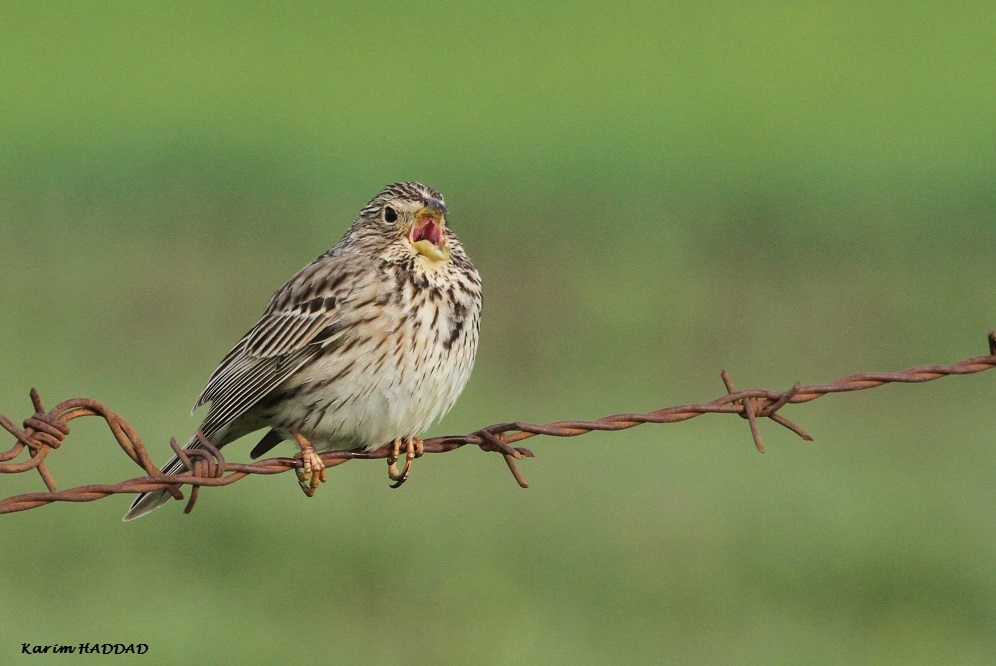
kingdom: Animalia
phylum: Chordata
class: Aves
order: Passeriformes
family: Emberizidae
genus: Emberiza
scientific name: Emberiza calandra
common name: Corn bunting
